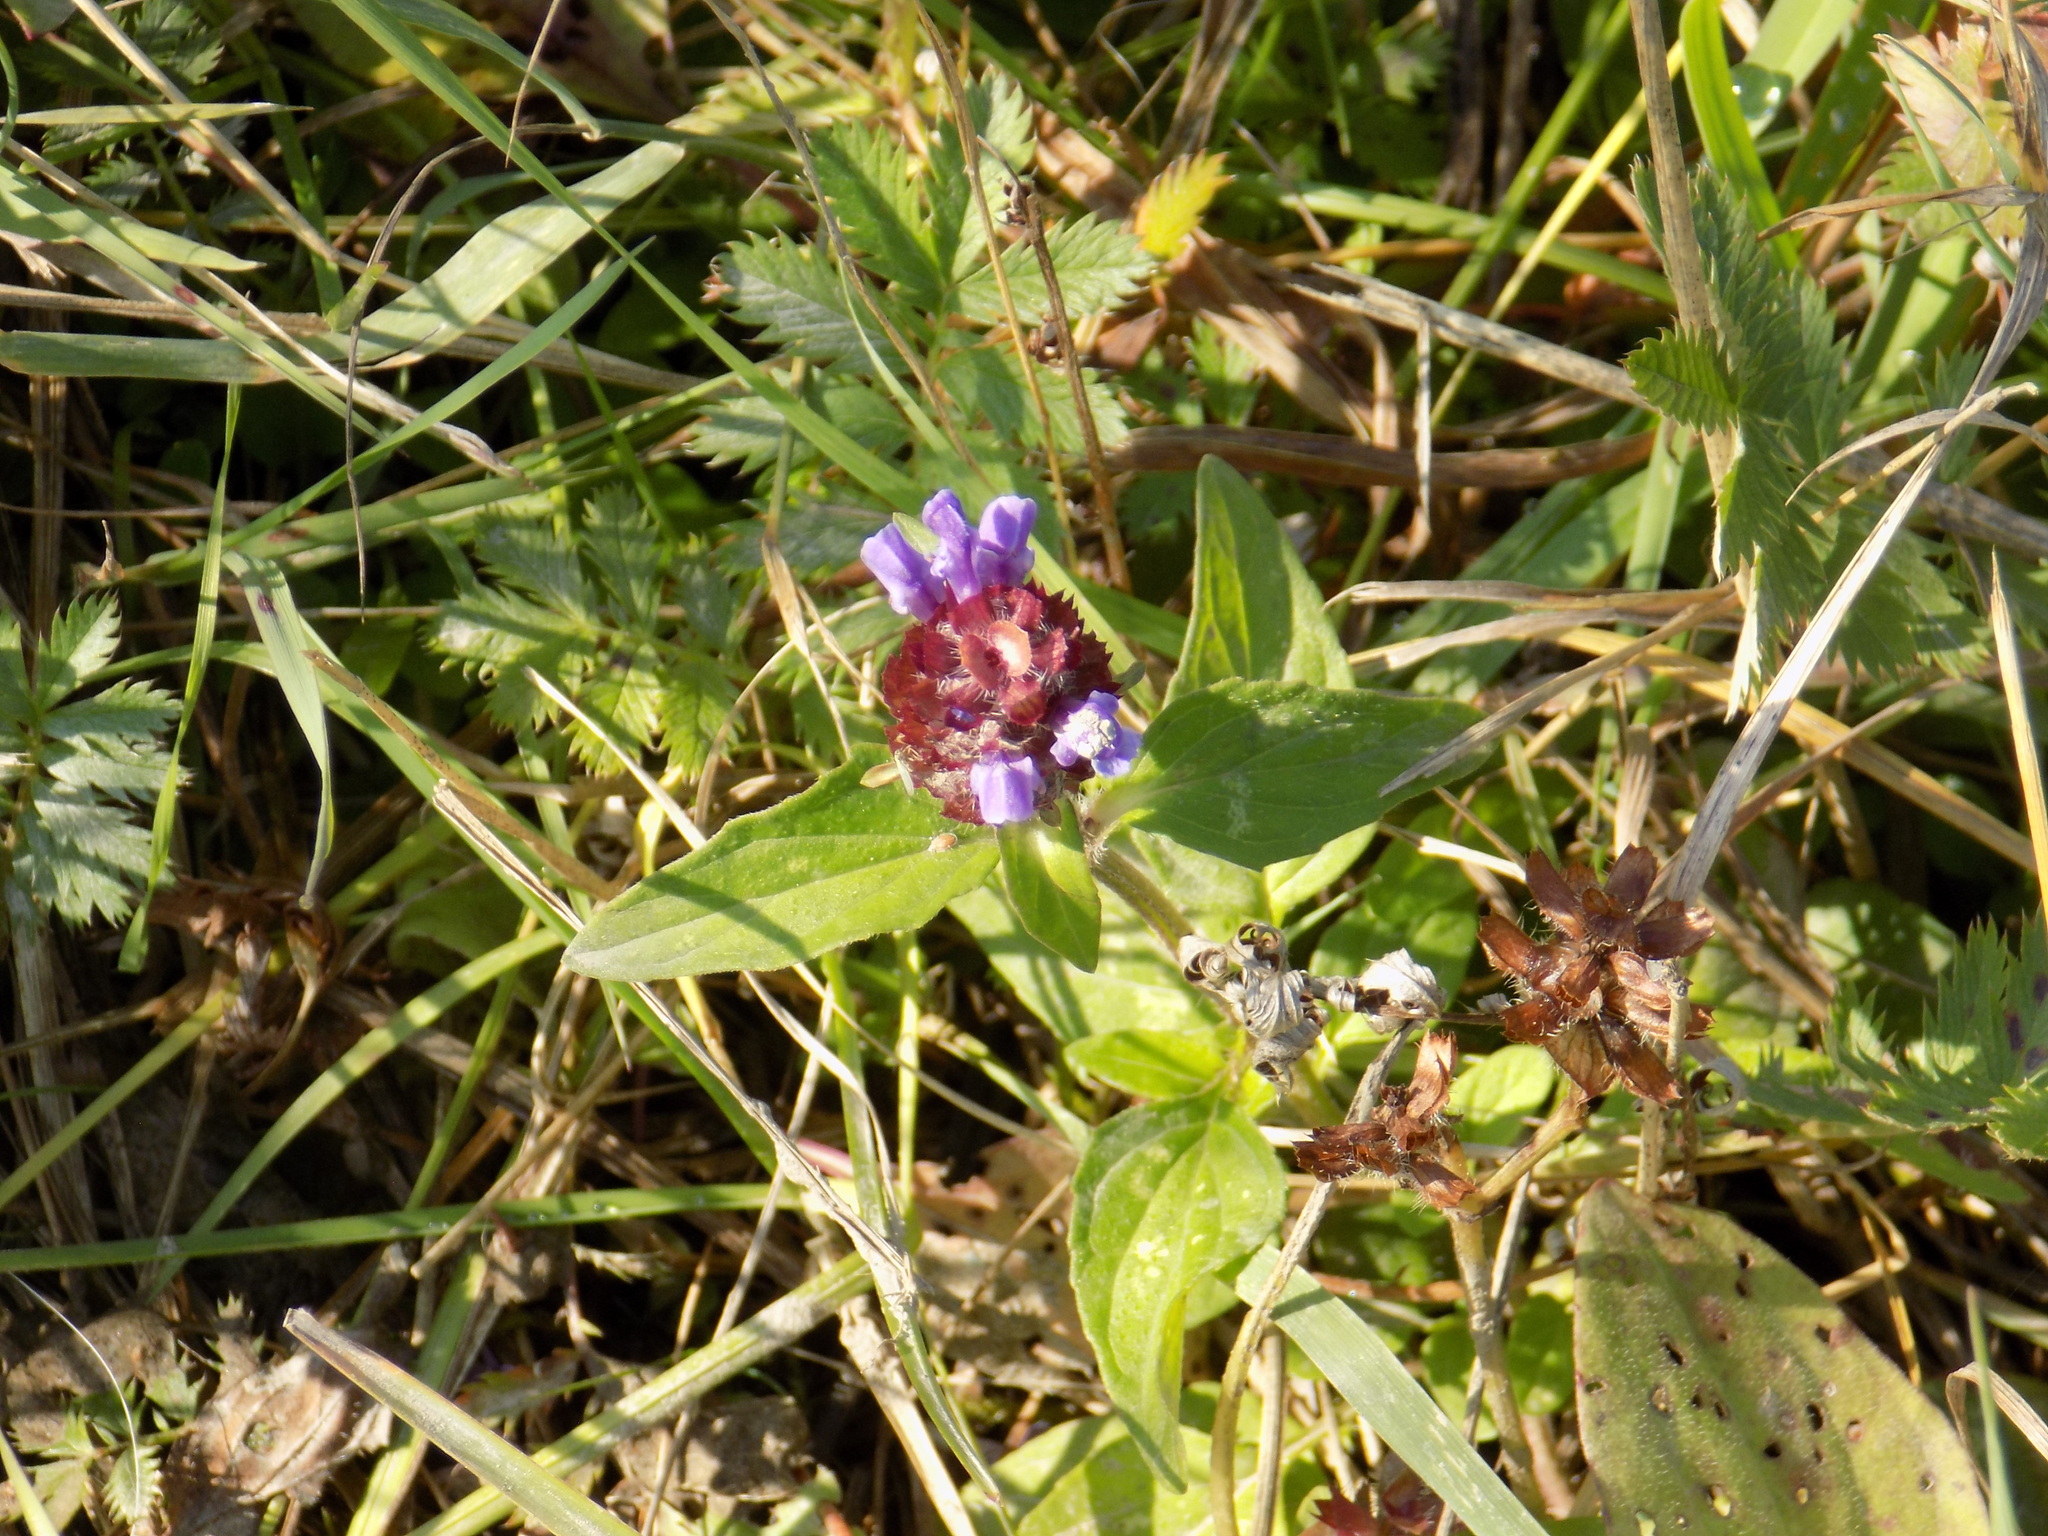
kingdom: Plantae
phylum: Tracheophyta
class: Magnoliopsida
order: Lamiales
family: Lamiaceae
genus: Prunella
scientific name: Prunella vulgaris
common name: Heal-all
